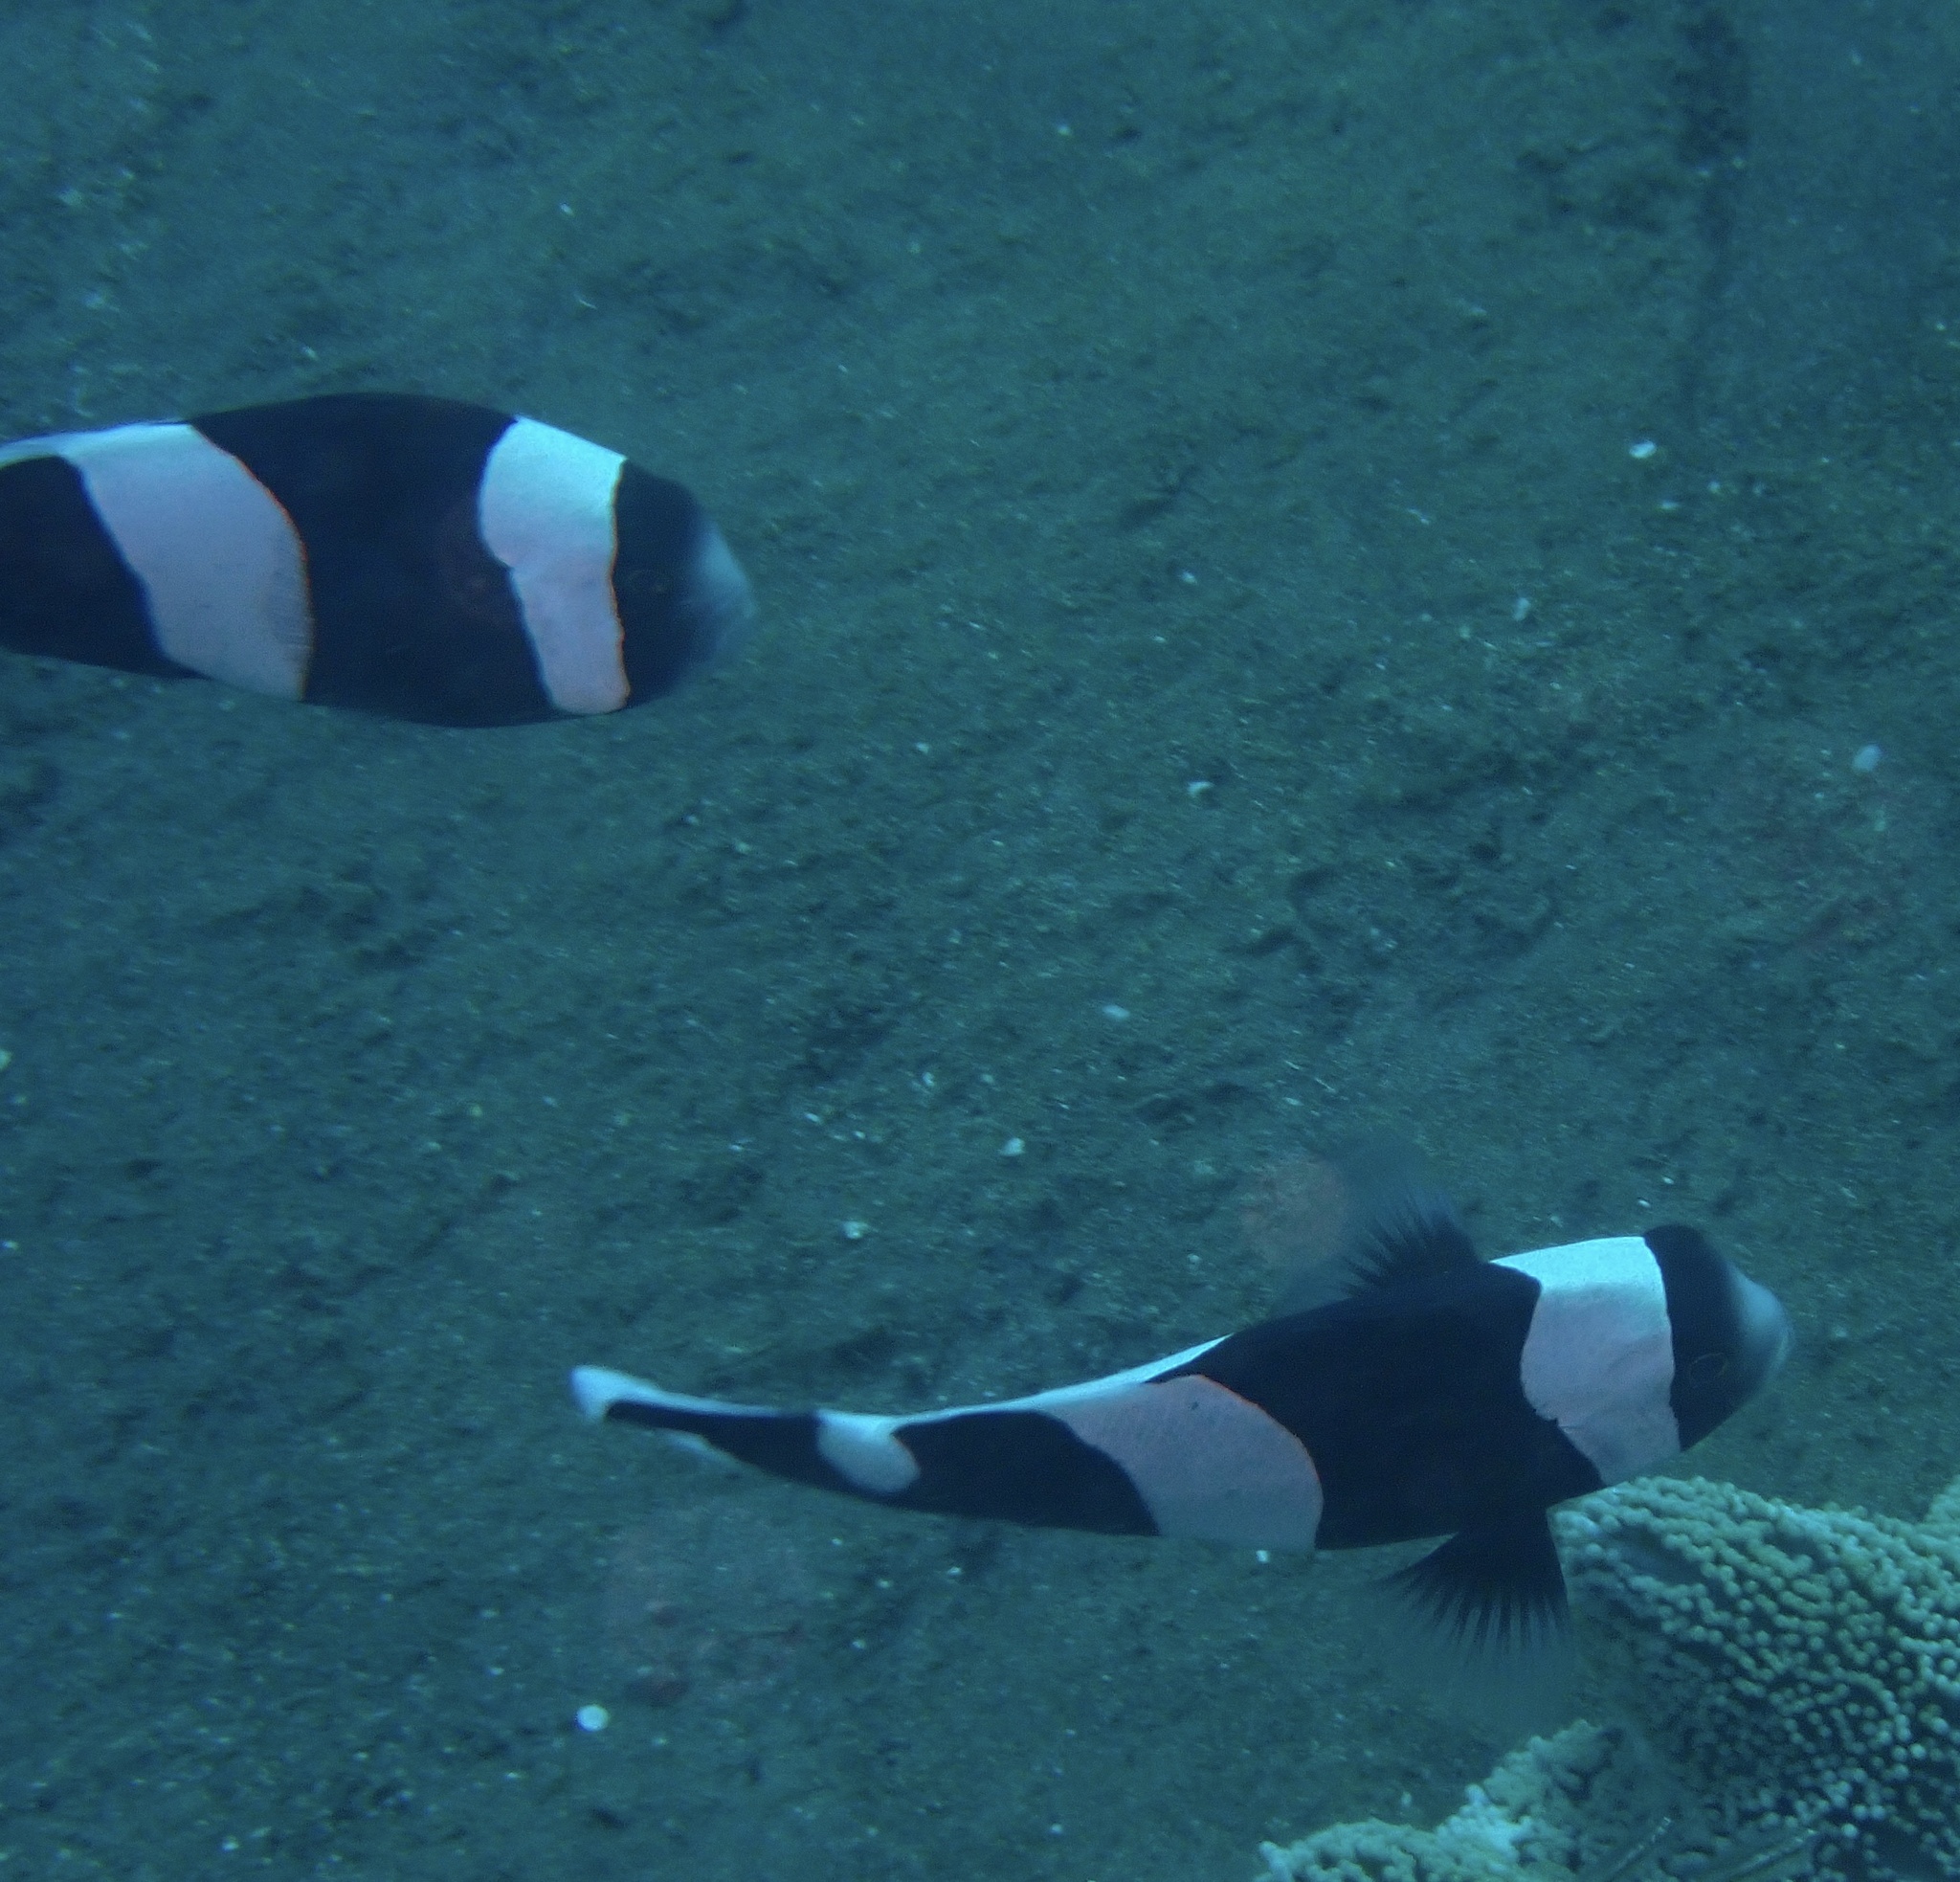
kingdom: Animalia
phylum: Chordata
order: Perciformes
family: Pomacentridae
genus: Amphiprion
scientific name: Amphiprion polymnus
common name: Saddleback anemonefish
